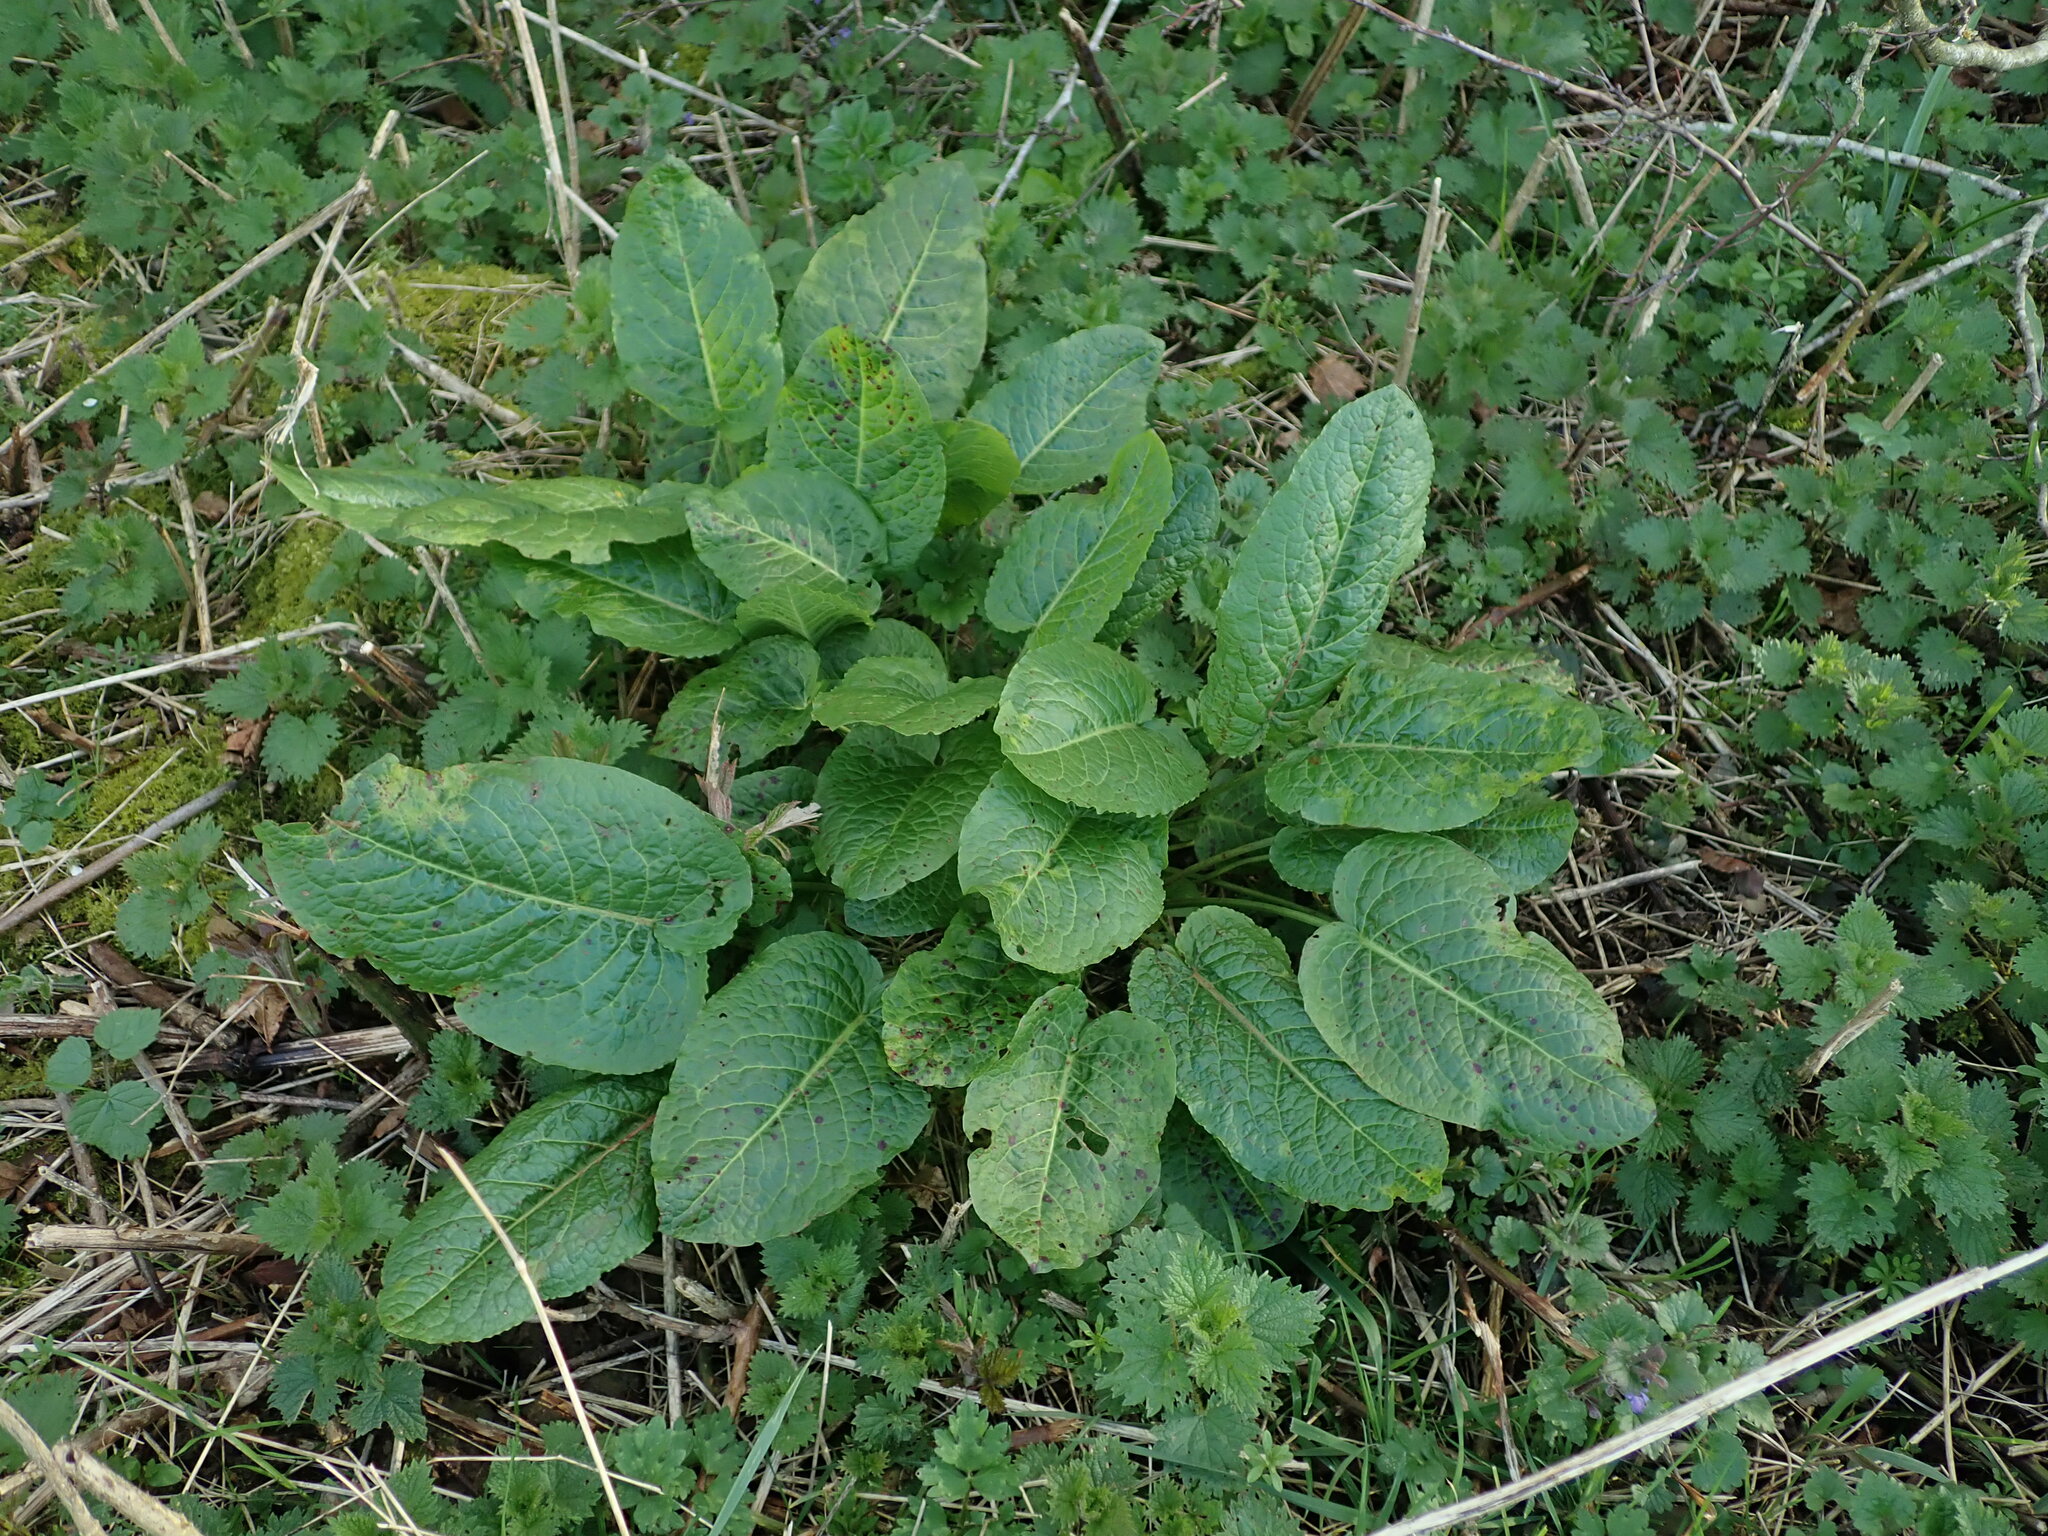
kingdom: Plantae
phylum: Tracheophyta
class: Magnoliopsida
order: Caryophyllales
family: Polygonaceae
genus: Rumex
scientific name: Rumex obtusifolius
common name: Bitter dock
